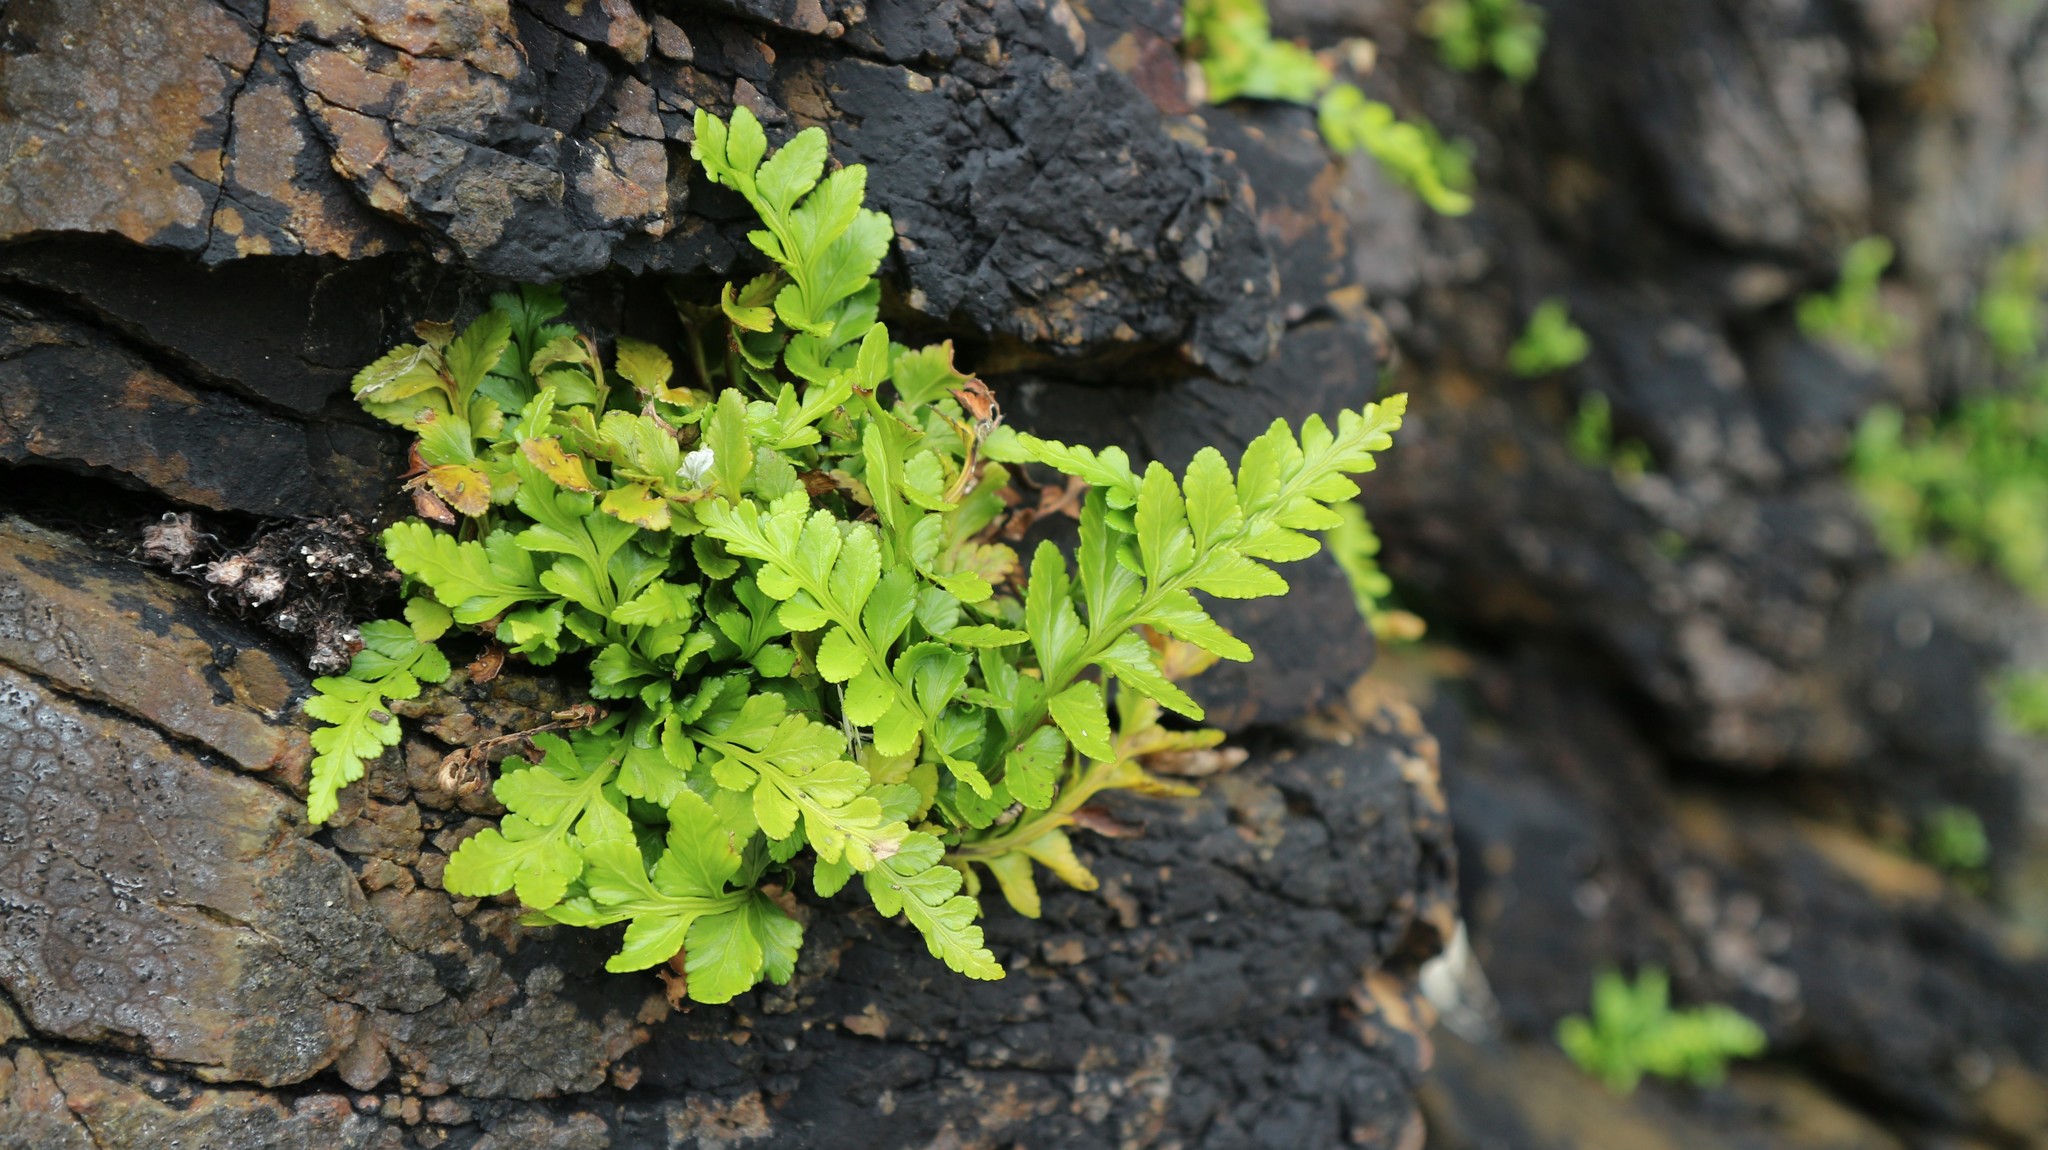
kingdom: Plantae
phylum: Tracheophyta
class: Polypodiopsida
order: Polypodiales
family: Aspleniaceae
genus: Asplenium
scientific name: Asplenium marinum
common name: Sea spleenwort
